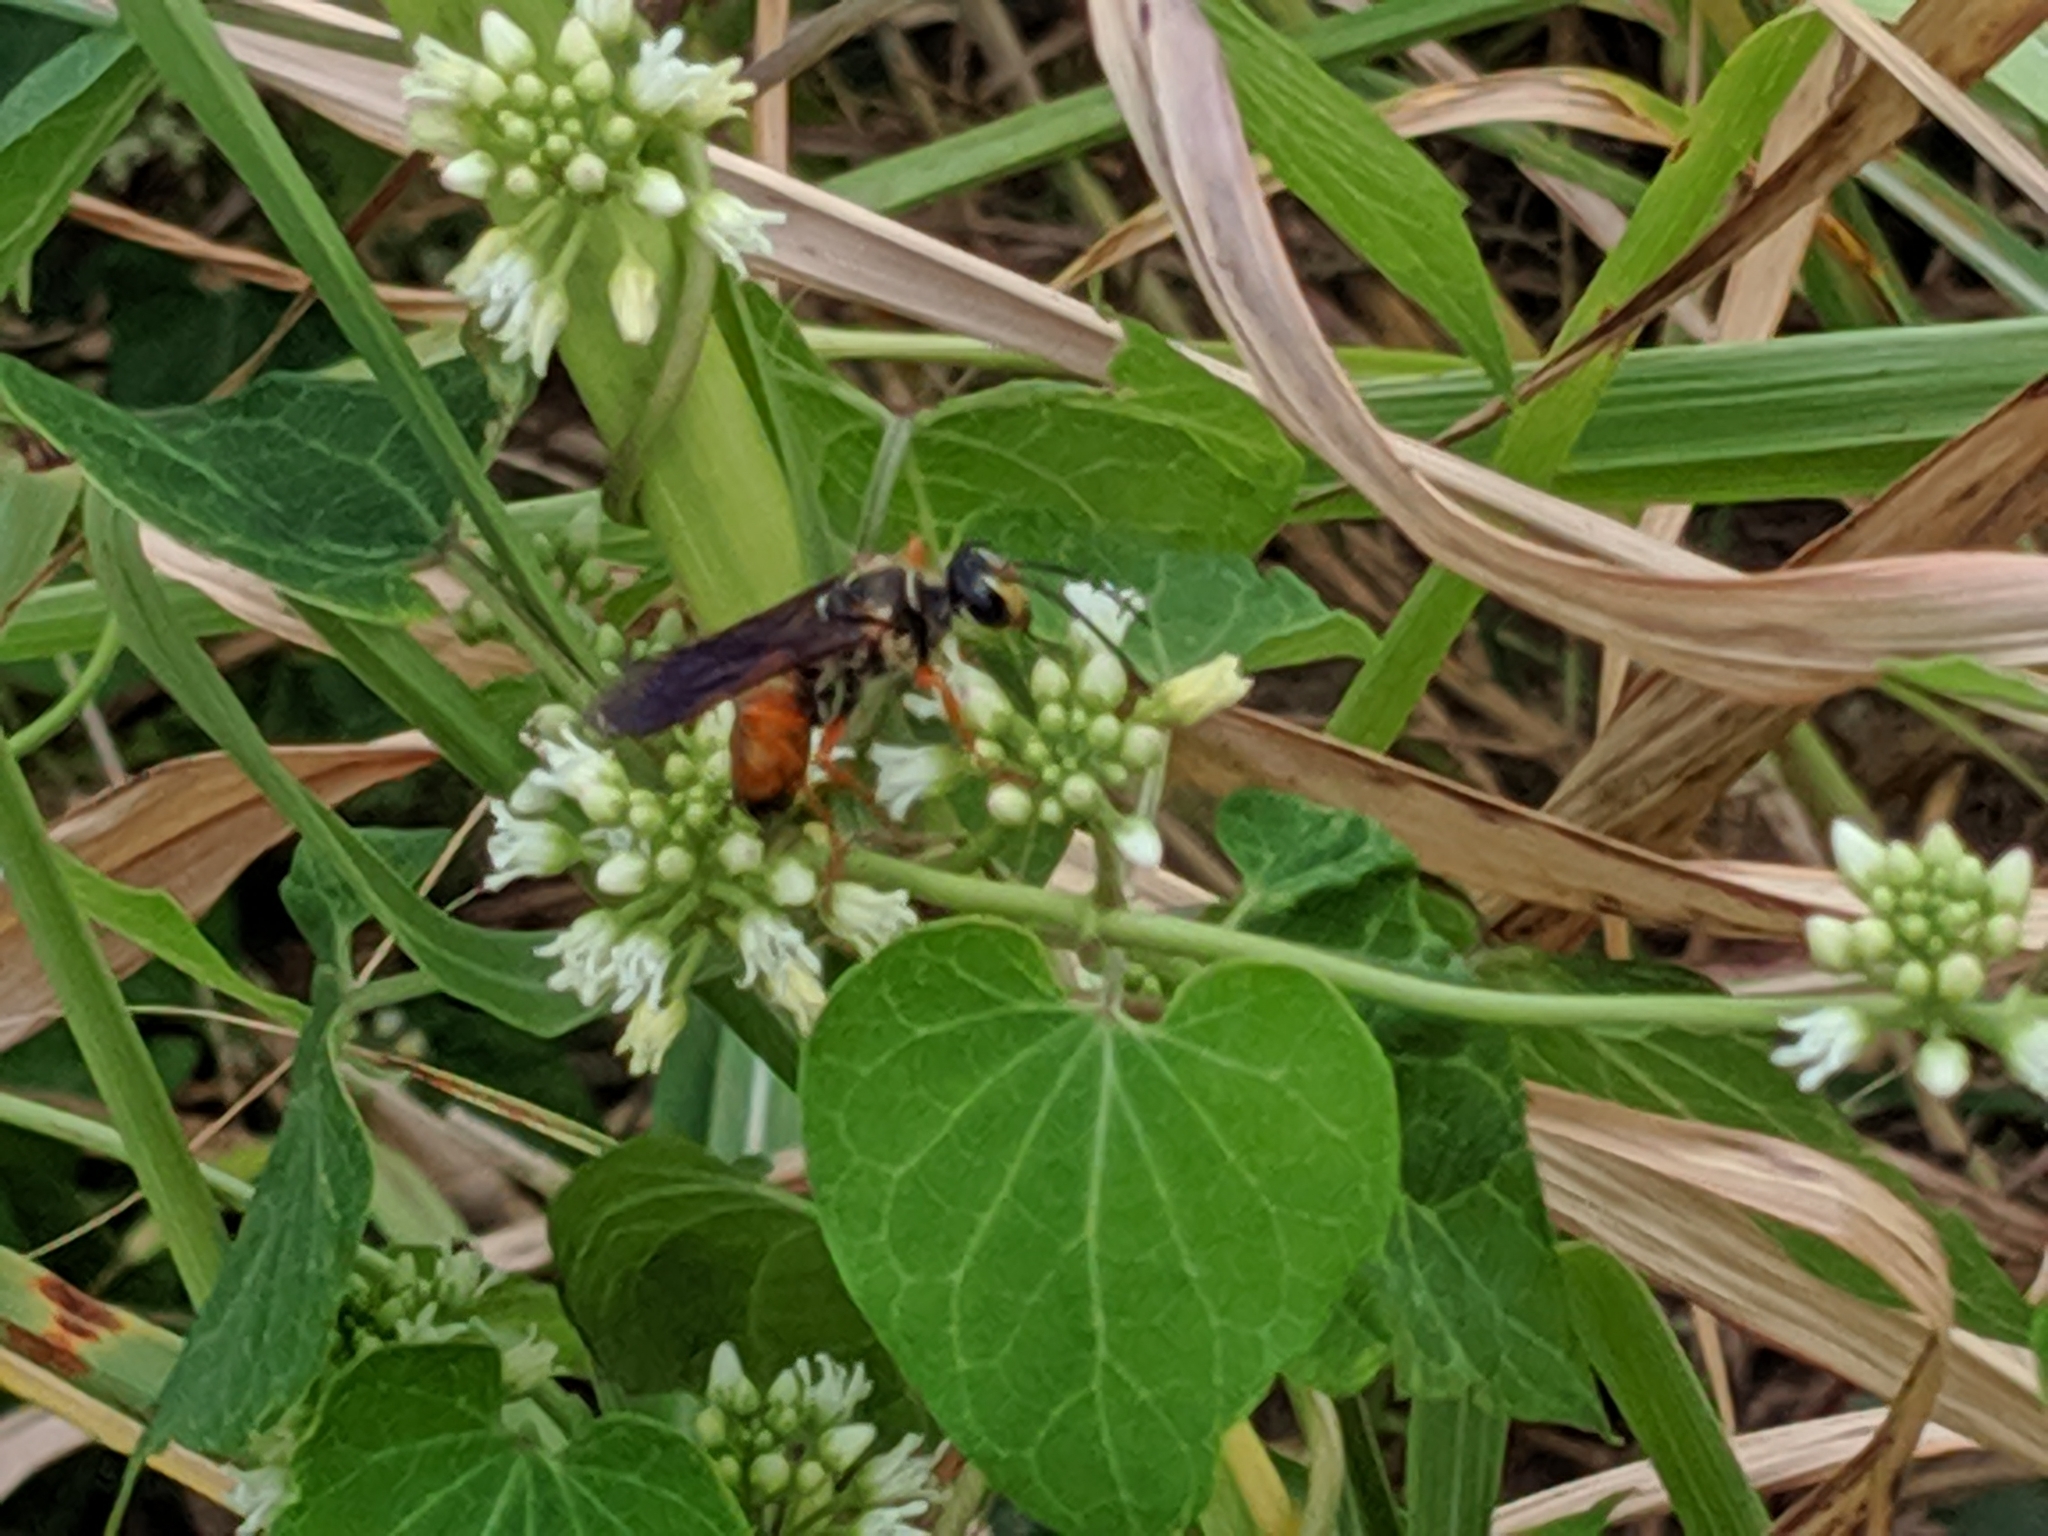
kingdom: Animalia
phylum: Arthropoda
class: Insecta
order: Hymenoptera
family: Sphecidae
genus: Sphex
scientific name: Sphex ichneumoneus
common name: Great golden digger wasp
